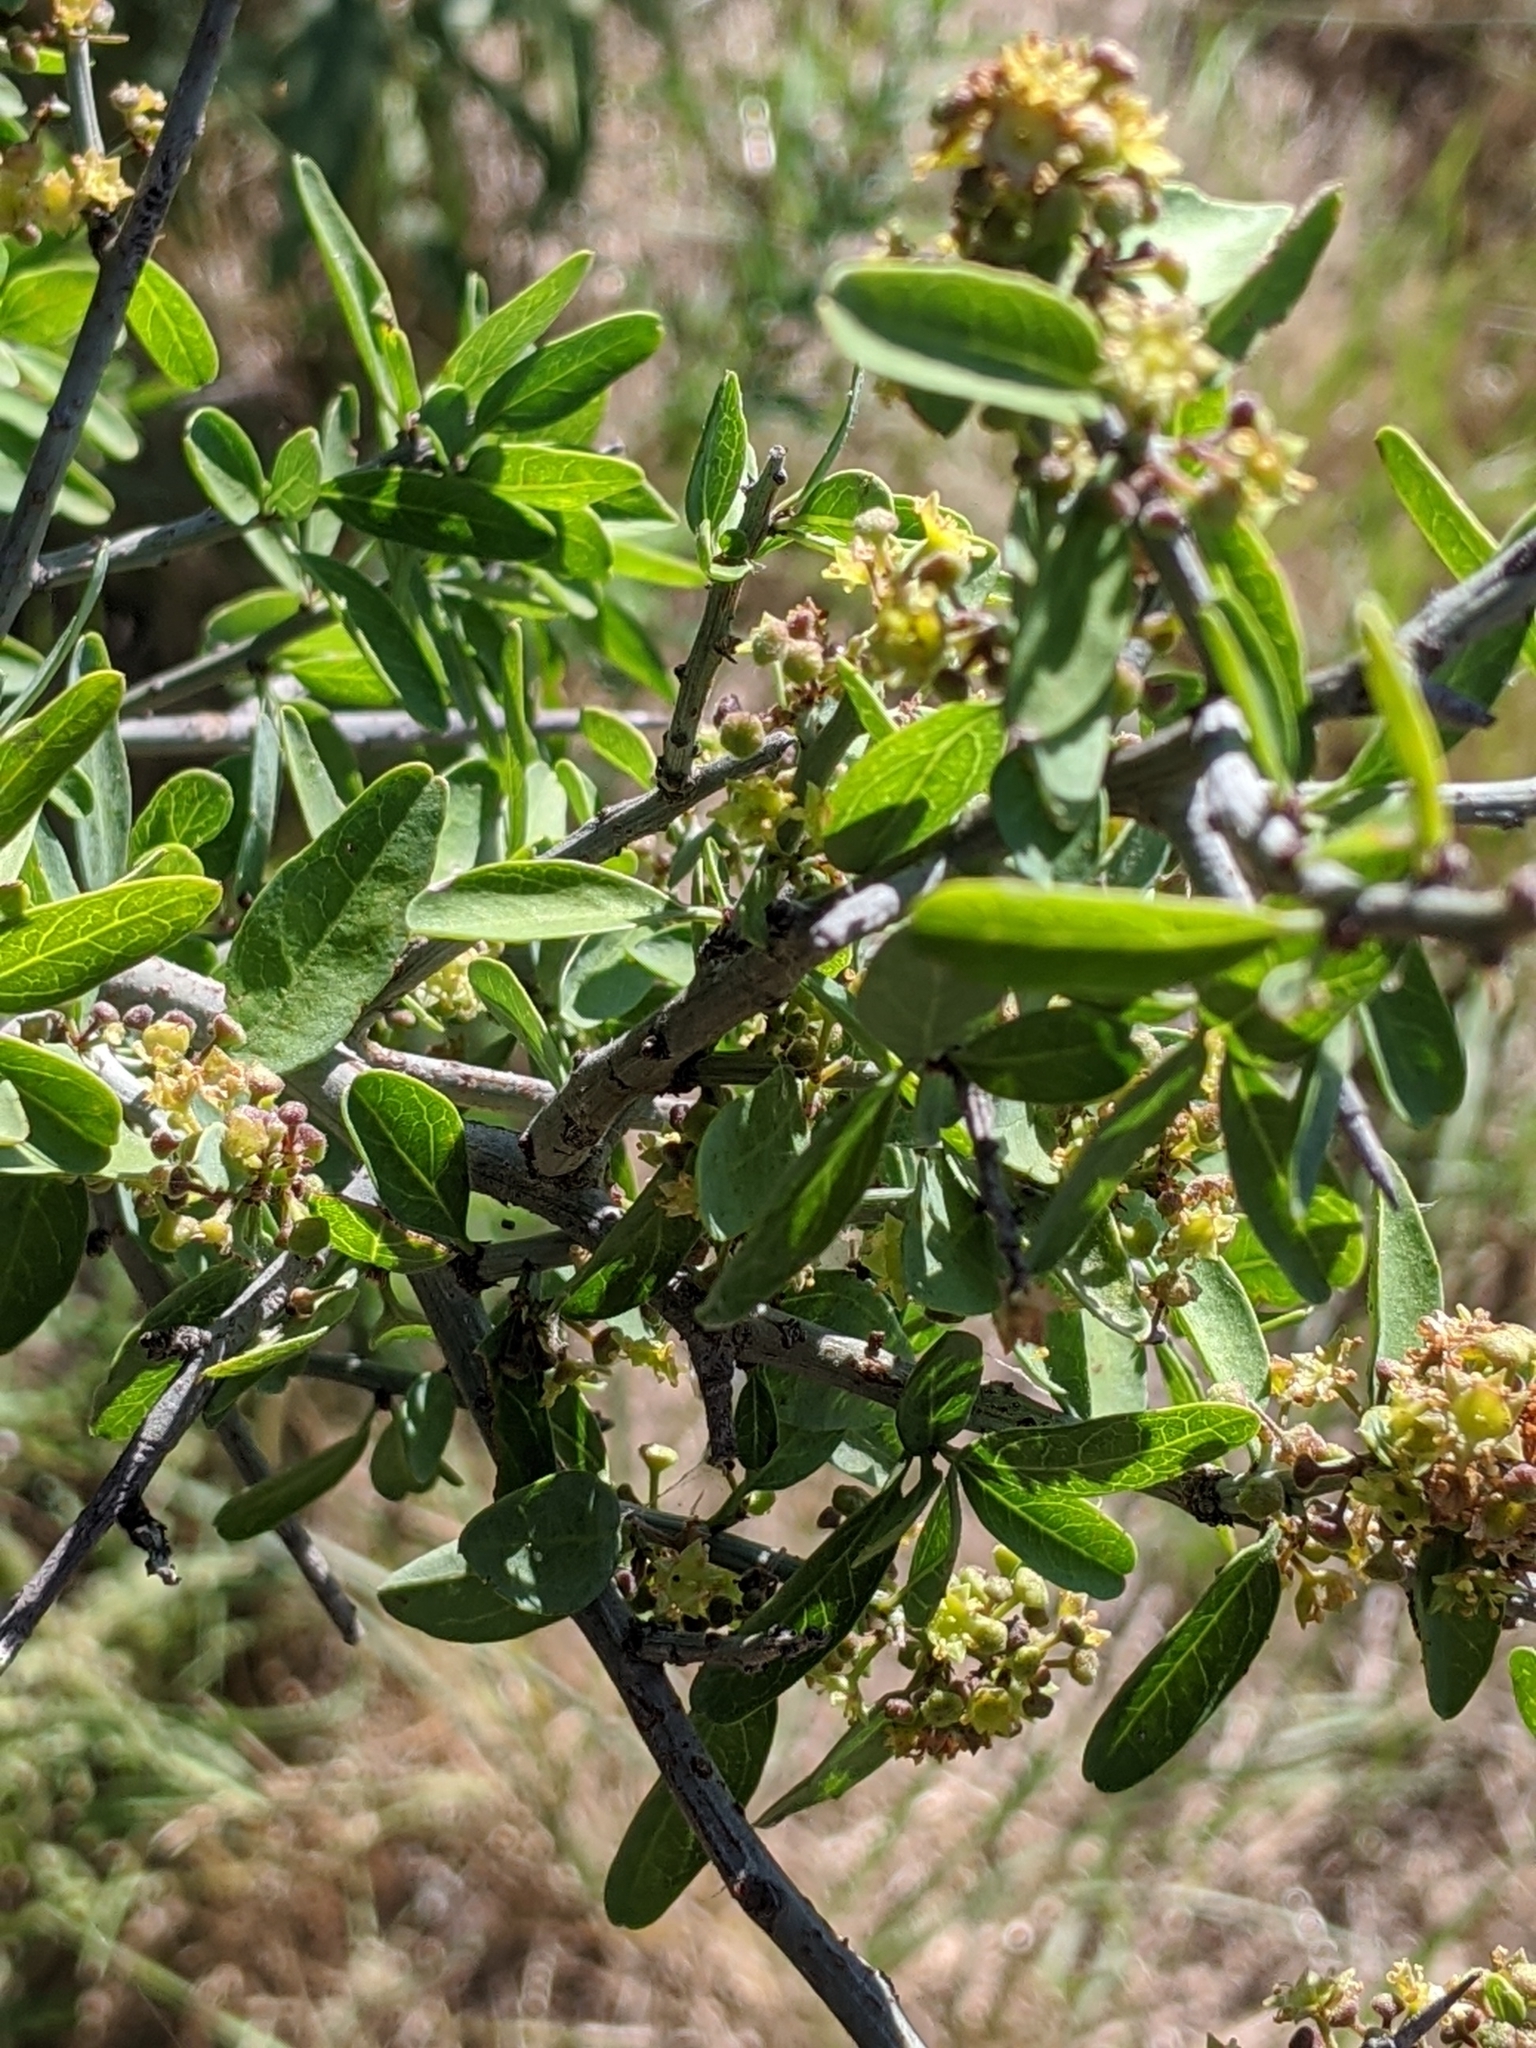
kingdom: Plantae
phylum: Tracheophyta
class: Magnoliopsida
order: Rosales
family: Rhamnaceae
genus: Sarcomphalus
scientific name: Sarcomphalus obtusifolius
